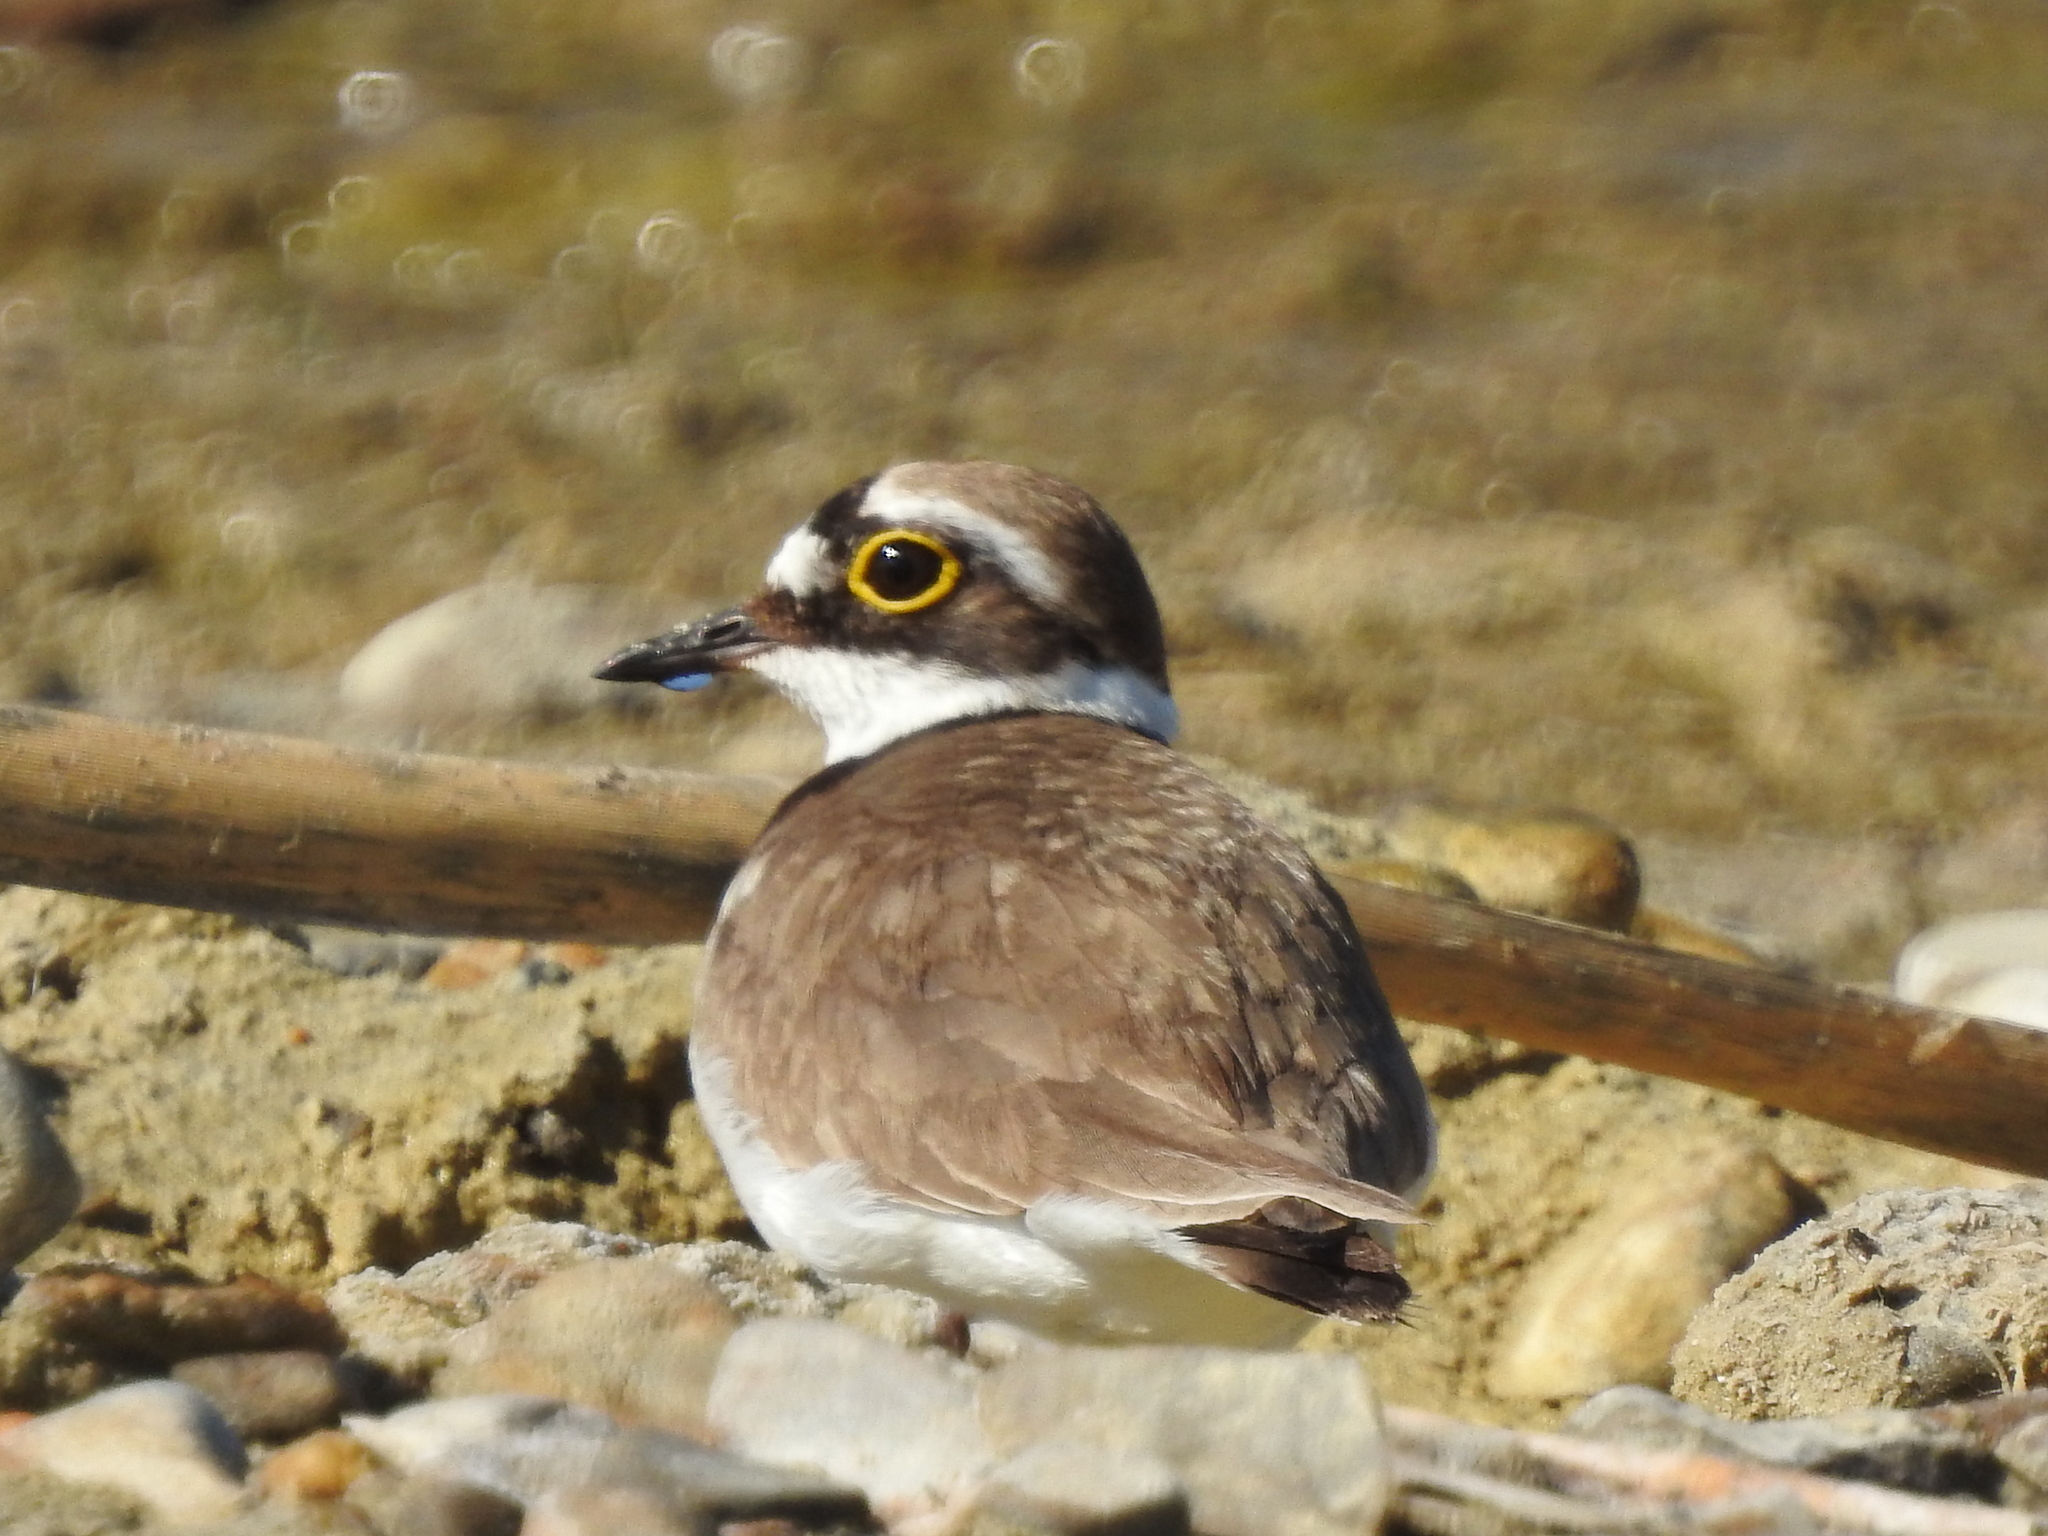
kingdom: Animalia
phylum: Chordata
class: Aves
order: Charadriiformes
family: Charadriidae
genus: Charadrius
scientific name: Charadrius dubius
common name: Little ringed plover
